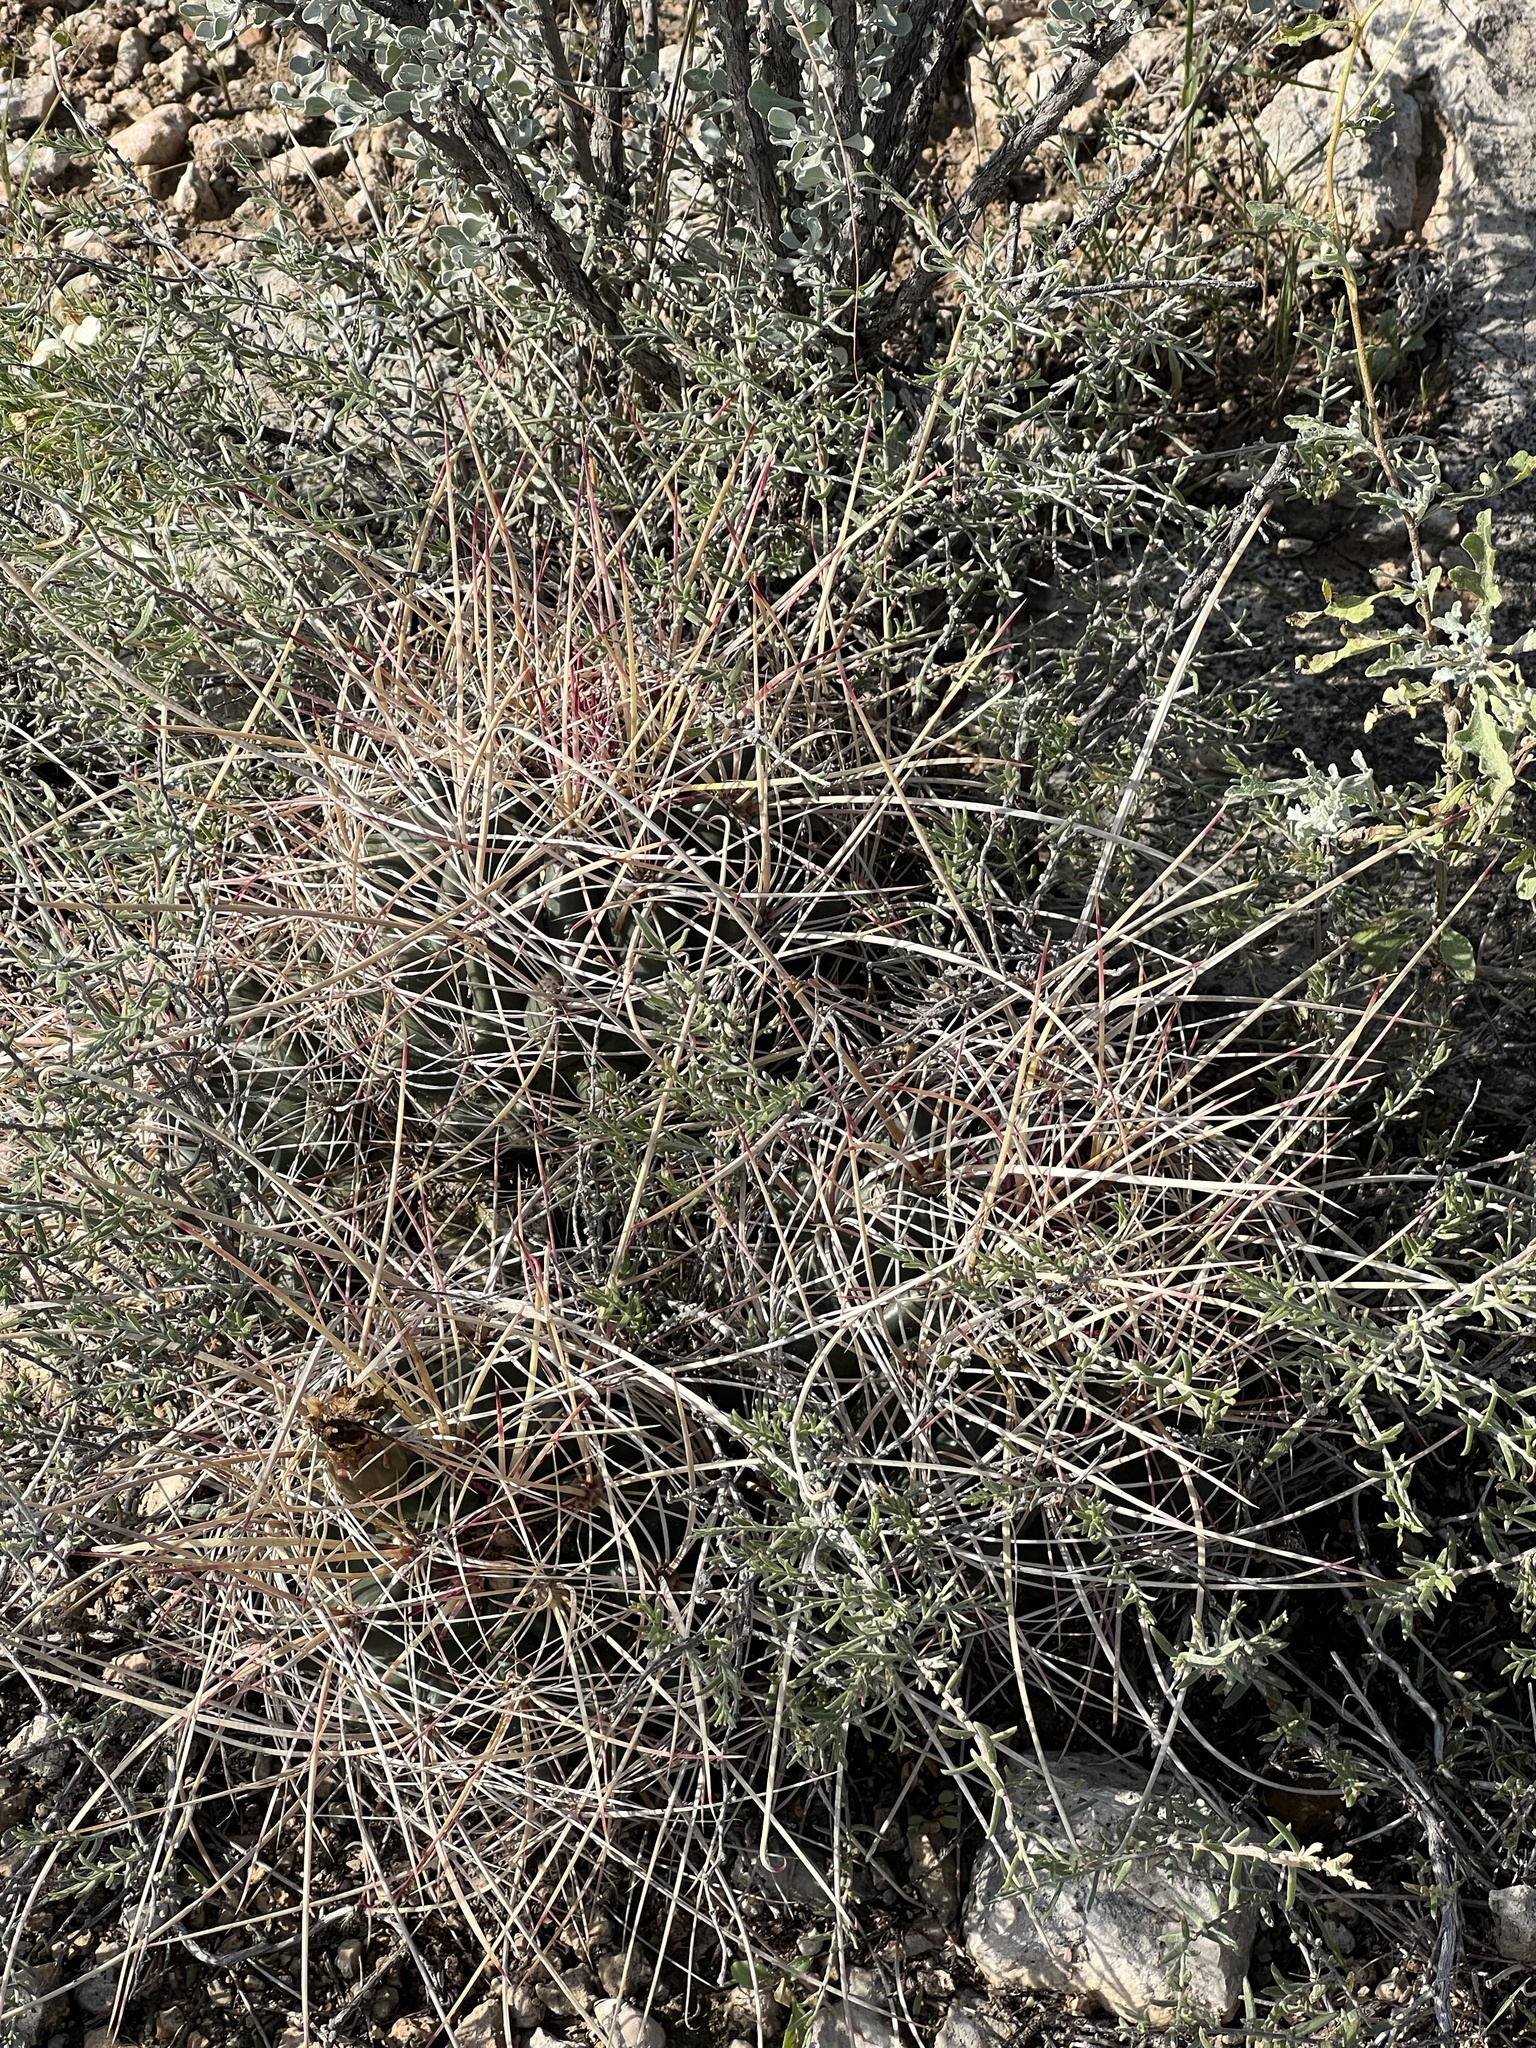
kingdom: Plantae
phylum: Tracheophyta
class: Magnoliopsida
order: Caryophyllales
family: Cactaceae
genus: Bisnaga
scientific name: Bisnaga hamatacantha
